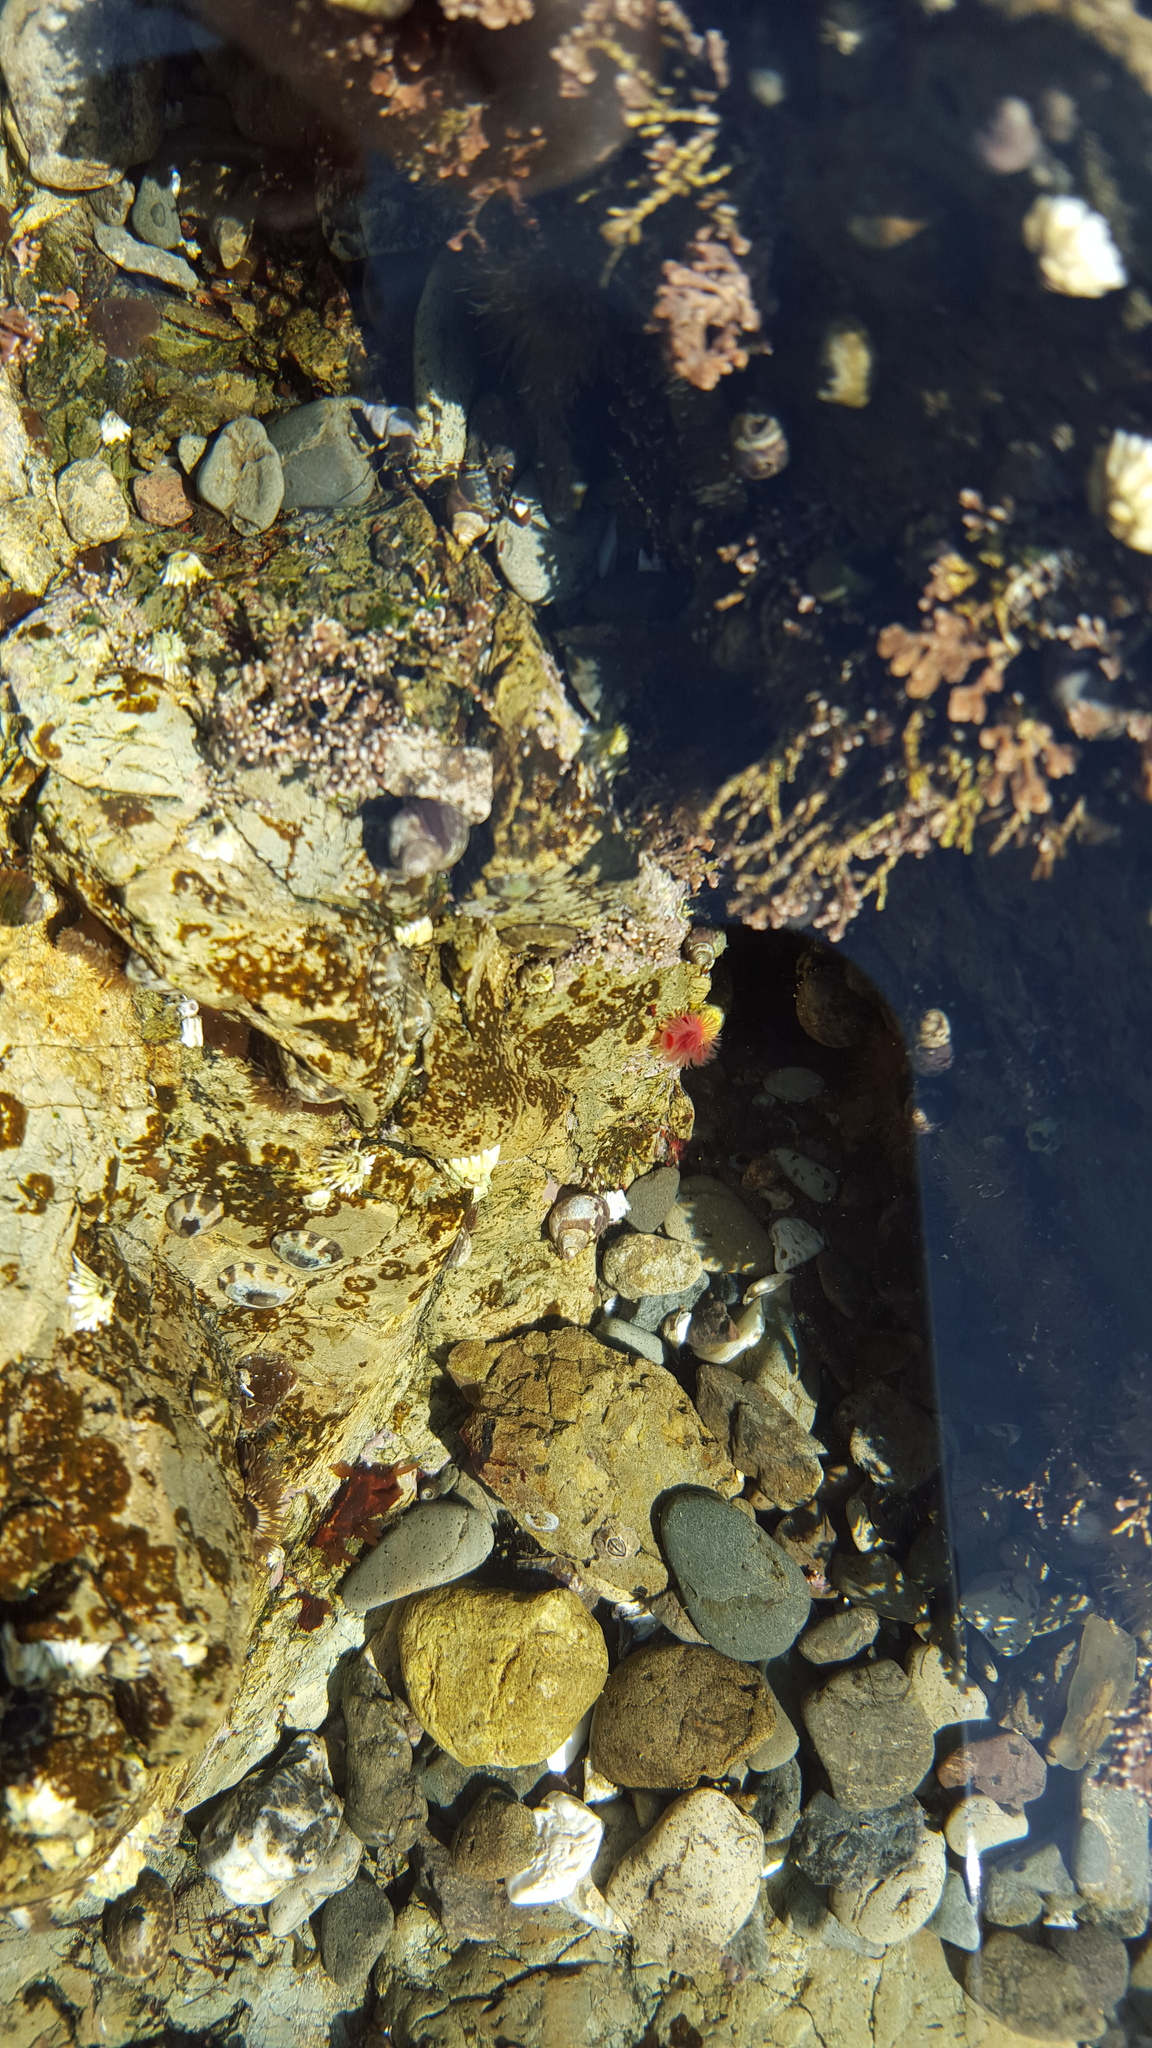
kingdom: Animalia
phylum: Annelida
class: Polychaeta
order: Sabellida
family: Serpulidae
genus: Serpula
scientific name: Serpula columbiana
